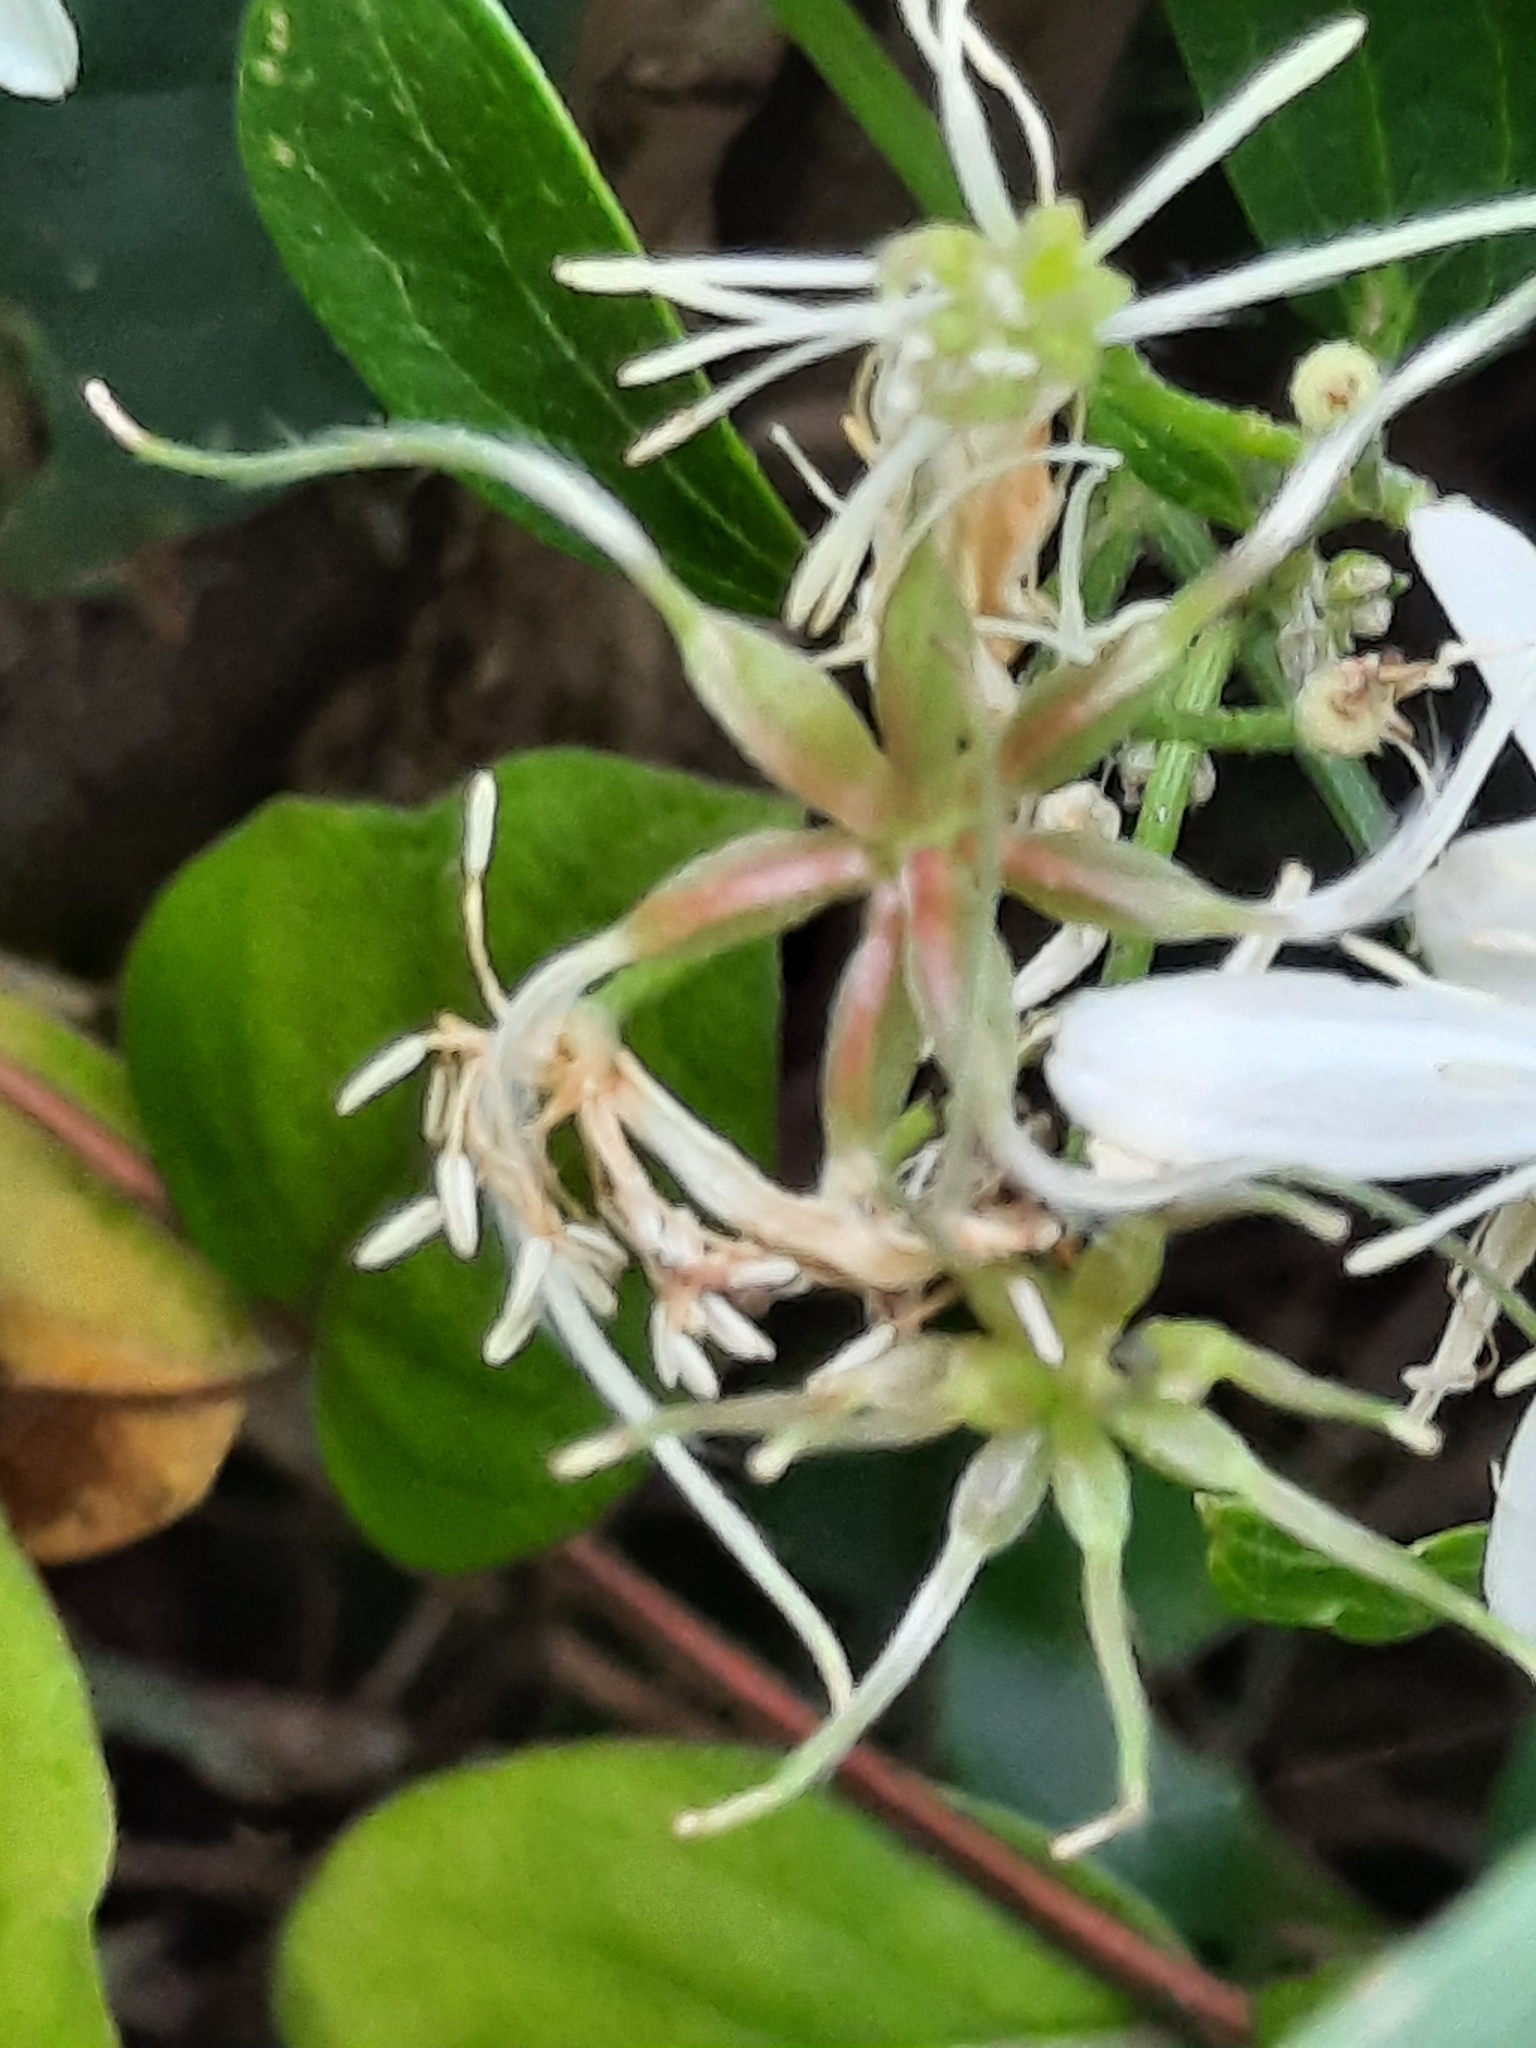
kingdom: Plantae
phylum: Tracheophyta
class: Magnoliopsida
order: Ranunculales
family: Ranunculaceae
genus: Clematis
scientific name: Clematis terniflora
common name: Sweet autumn clematis
